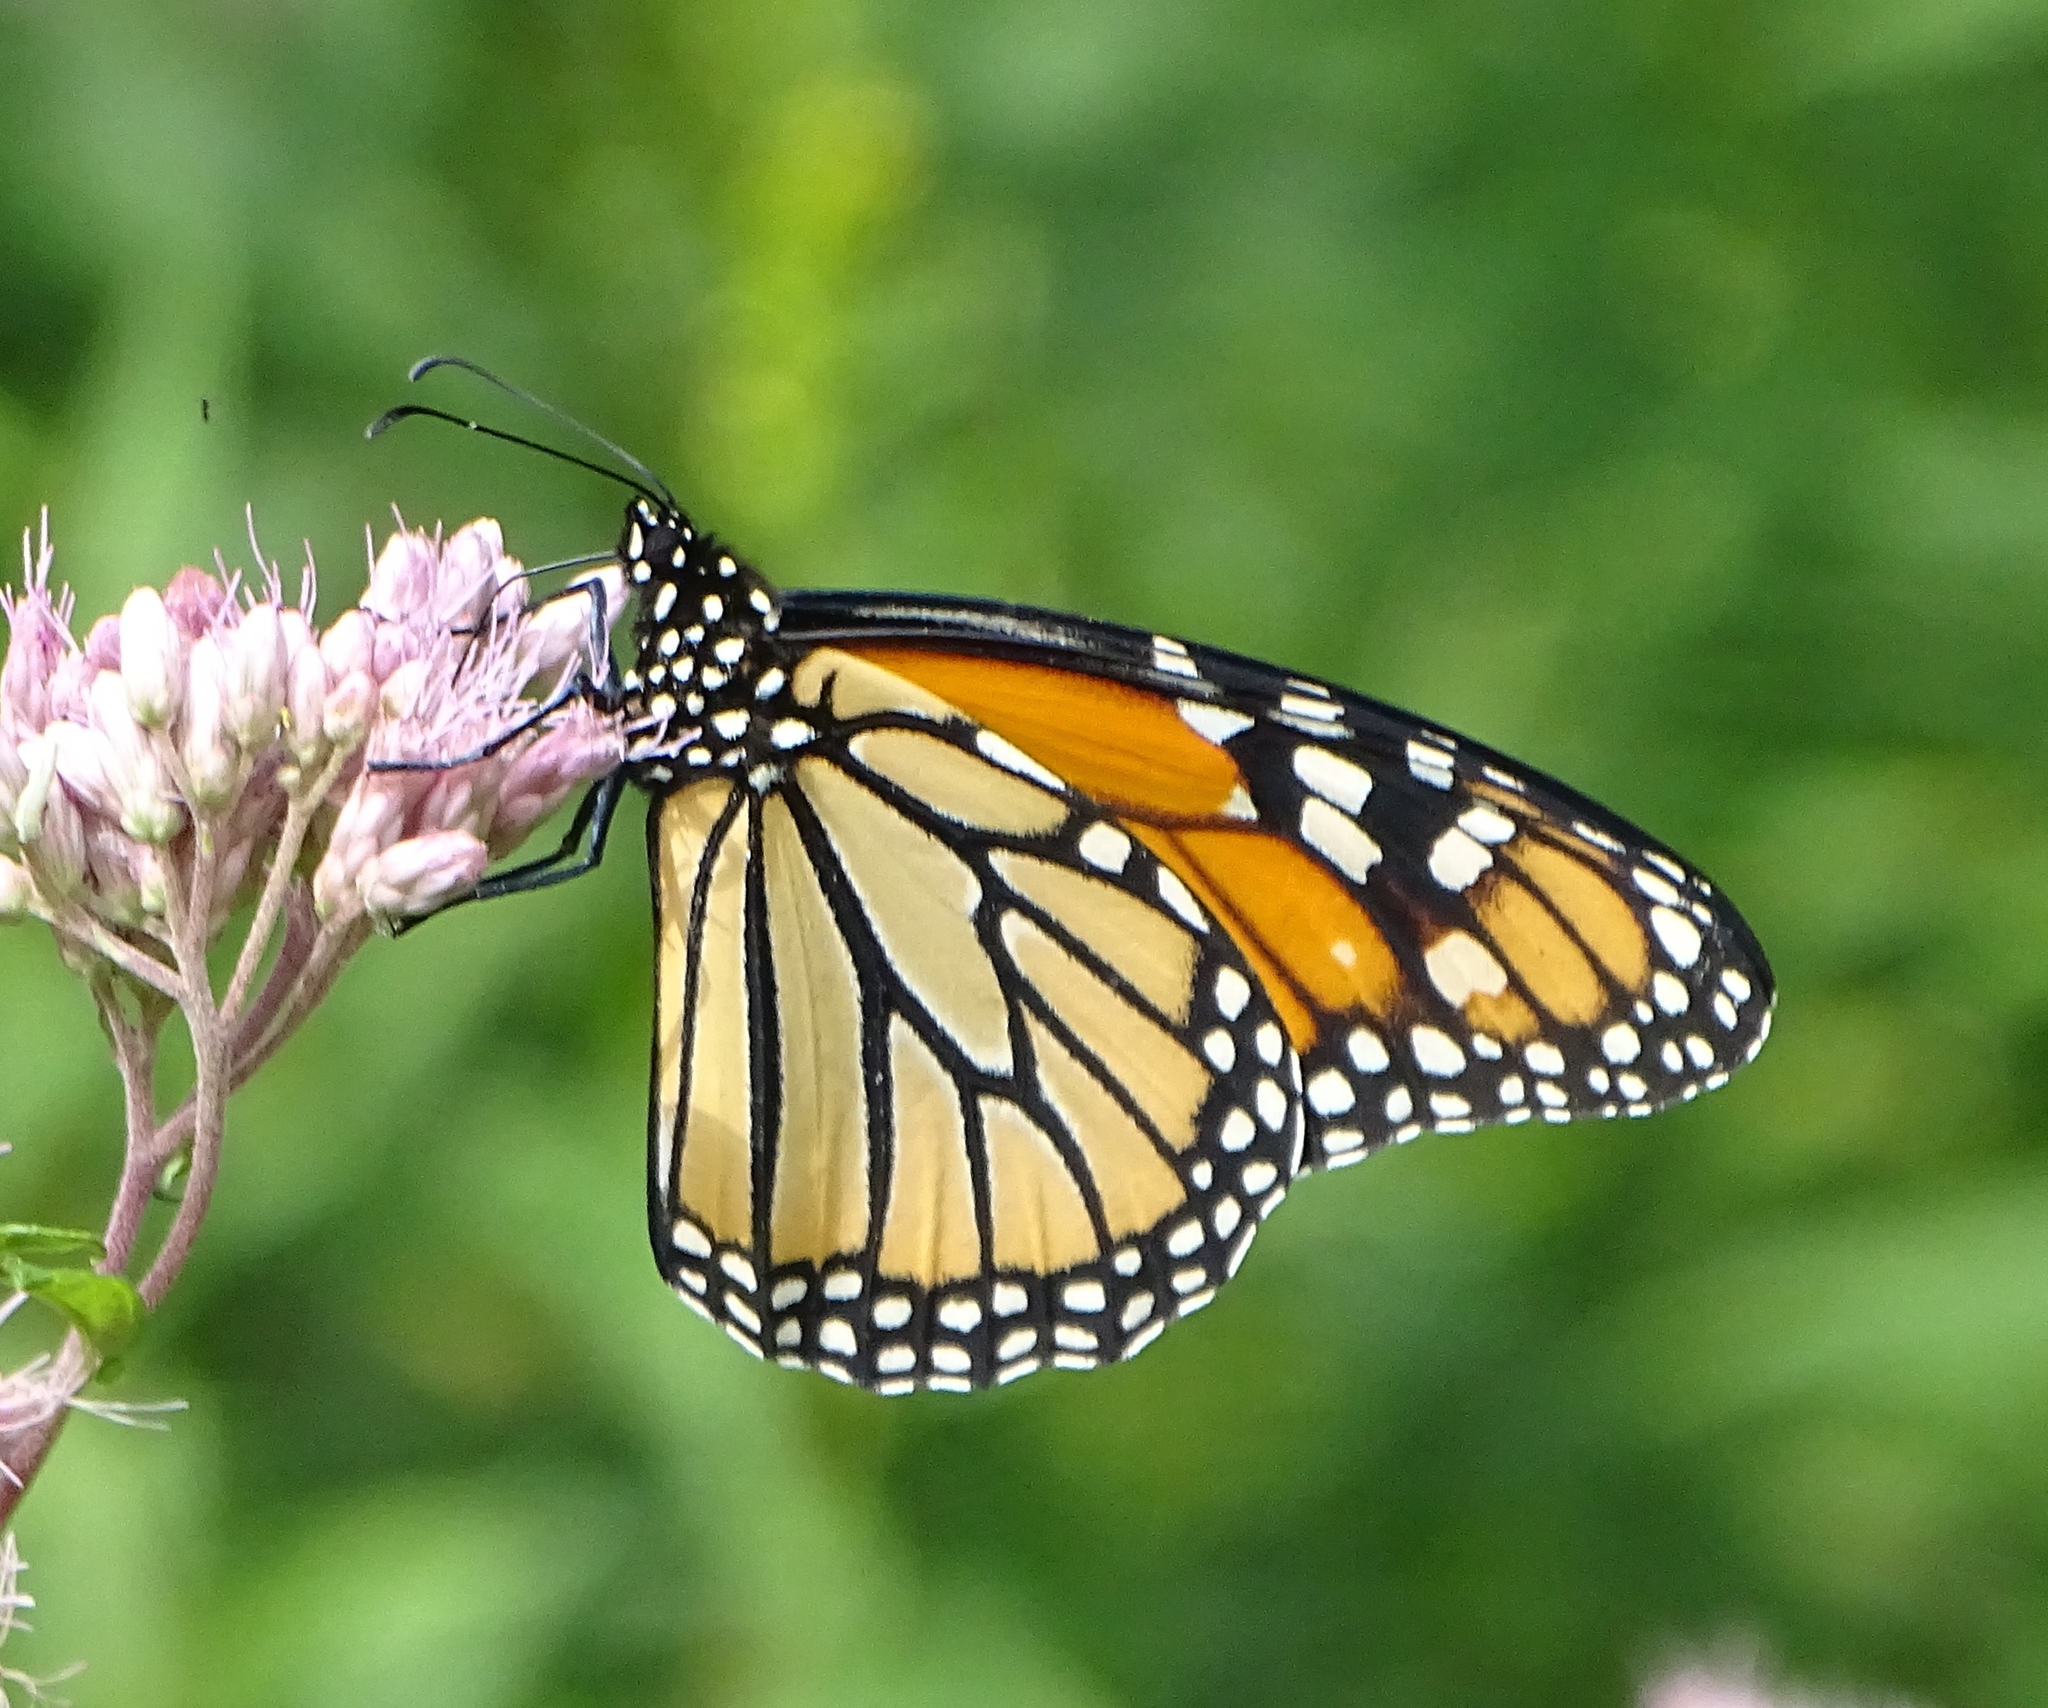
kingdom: Animalia
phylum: Arthropoda
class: Insecta
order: Lepidoptera
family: Nymphalidae
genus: Danaus
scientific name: Danaus plexippus
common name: Monarch
